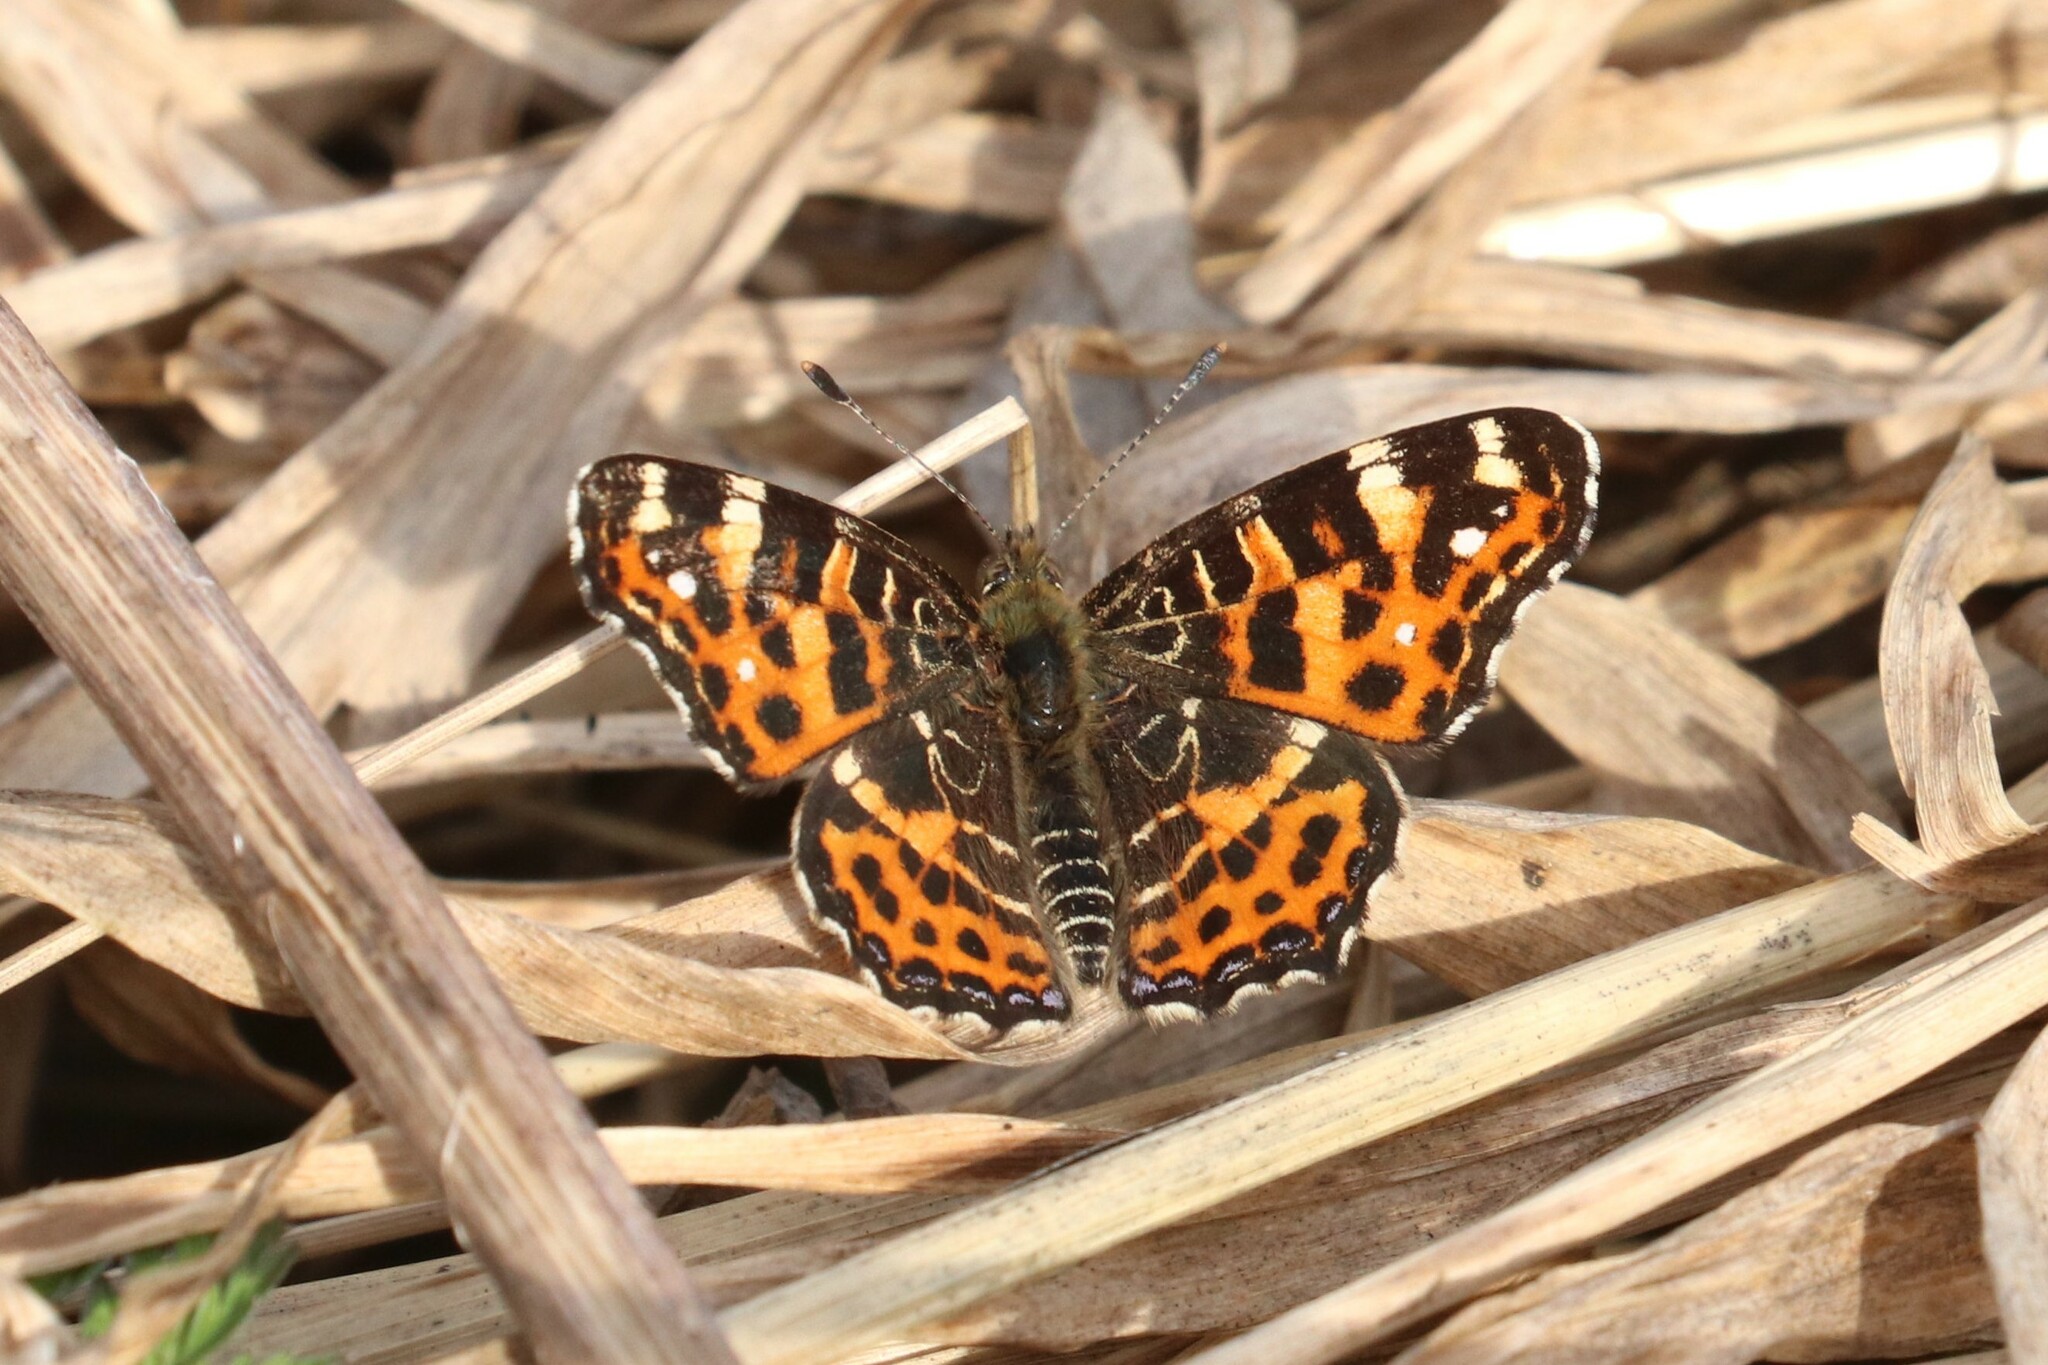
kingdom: Animalia
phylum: Arthropoda
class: Insecta
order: Lepidoptera
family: Nymphalidae
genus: Araschnia
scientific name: Araschnia levana
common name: Map butterfly
